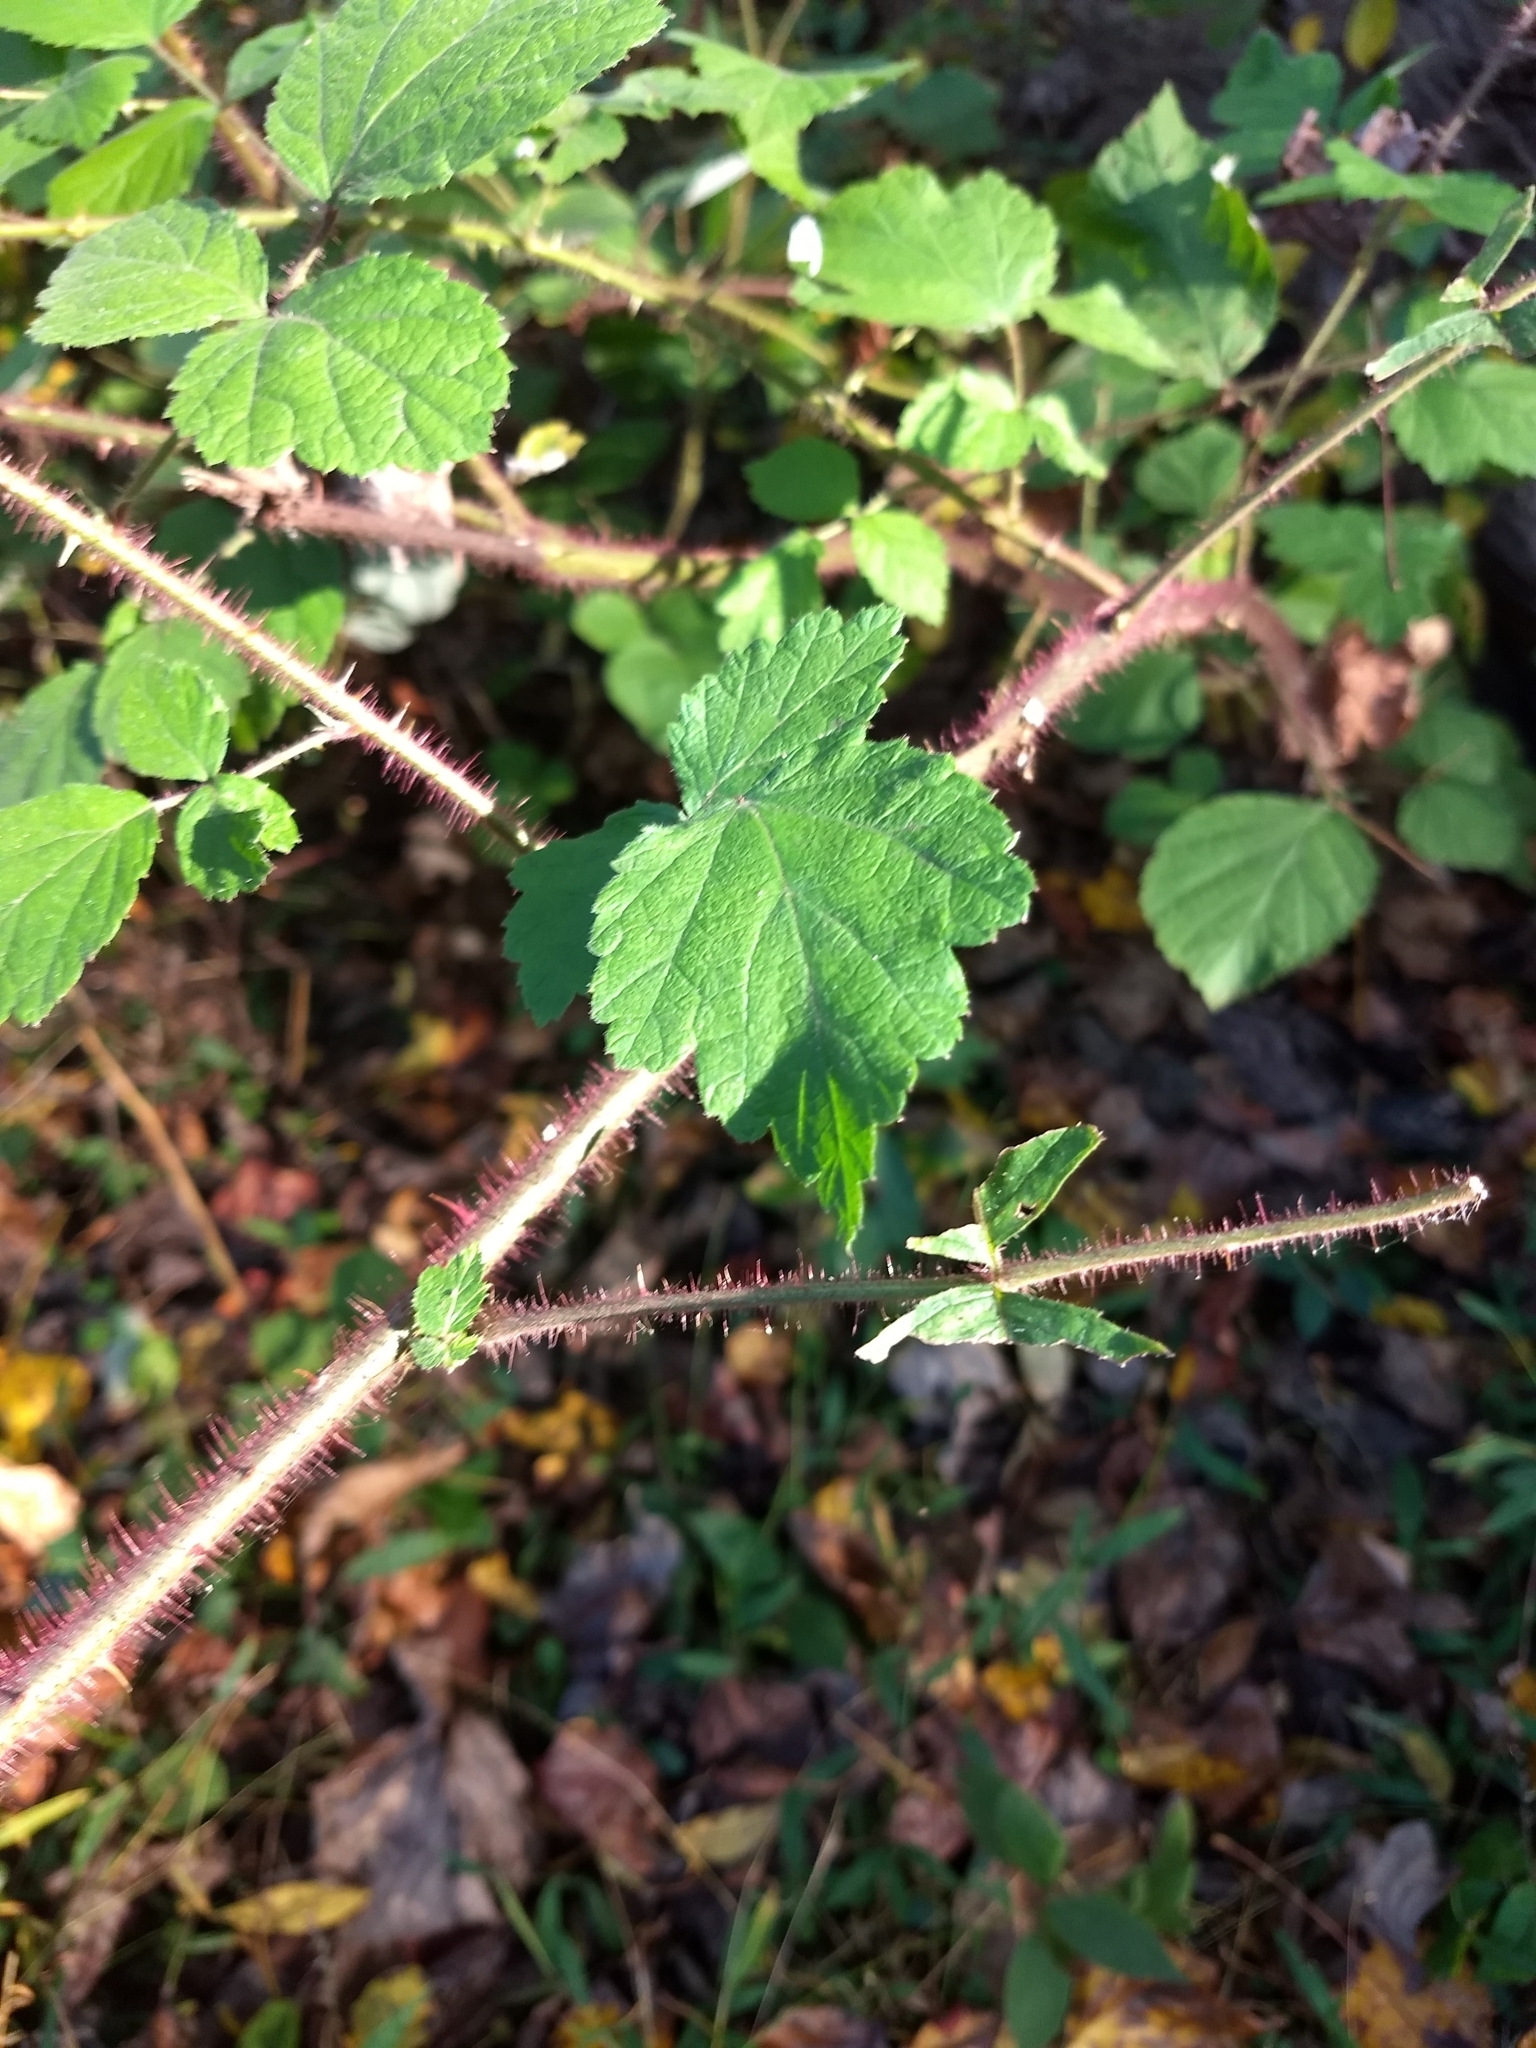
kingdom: Plantae
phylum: Tracheophyta
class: Magnoliopsida
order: Rosales
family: Rosaceae
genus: Rubus
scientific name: Rubus phoenicolasius
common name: Japanese wineberry
